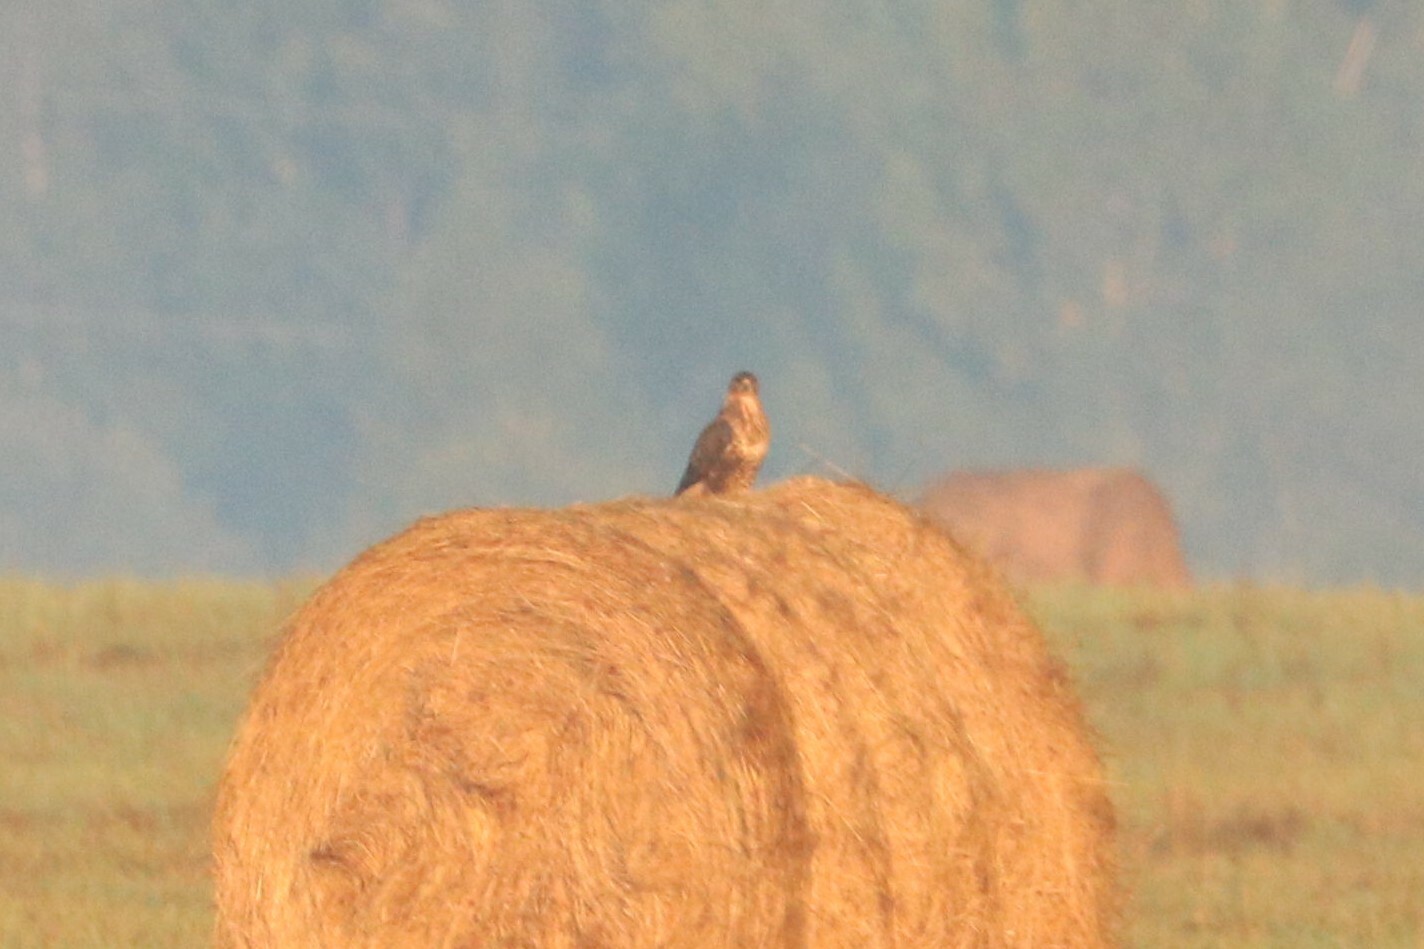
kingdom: Animalia
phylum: Chordata
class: Aves
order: Accipitriformes
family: Accipitridae
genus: Buteo
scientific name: Buteo buteo
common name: Common buzzard
